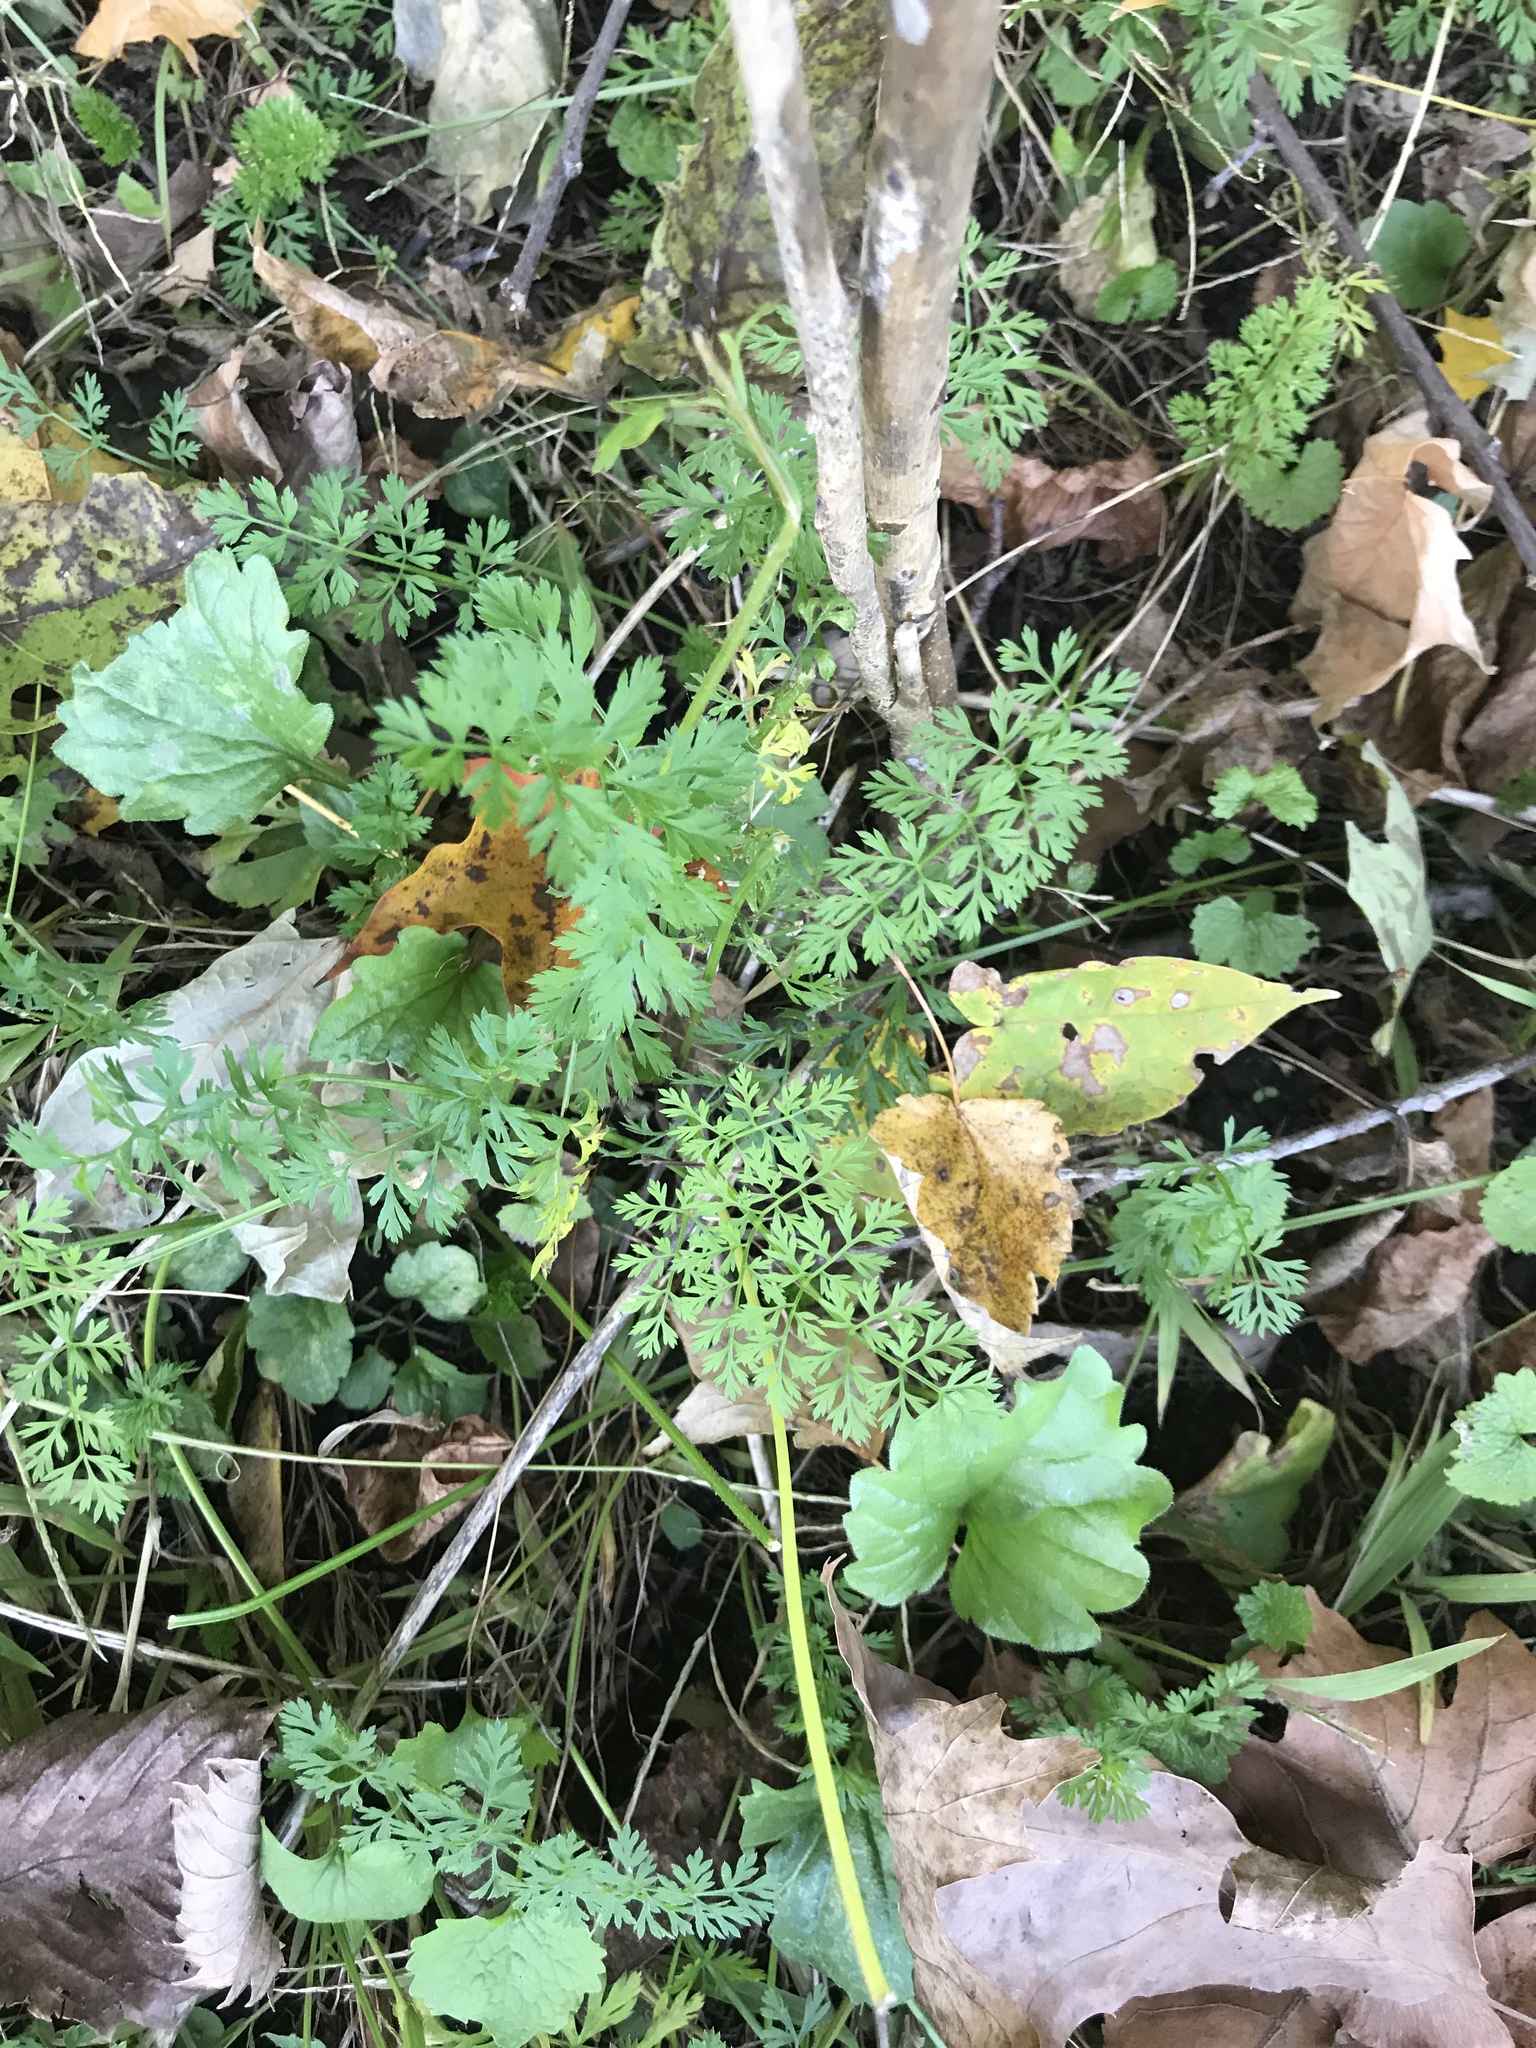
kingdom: Plantae
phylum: Tracheophyta
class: Magnoliopsida
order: Apiales
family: Apiaceae
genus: Daucus
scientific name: Daucus carota
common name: Wild carrot
